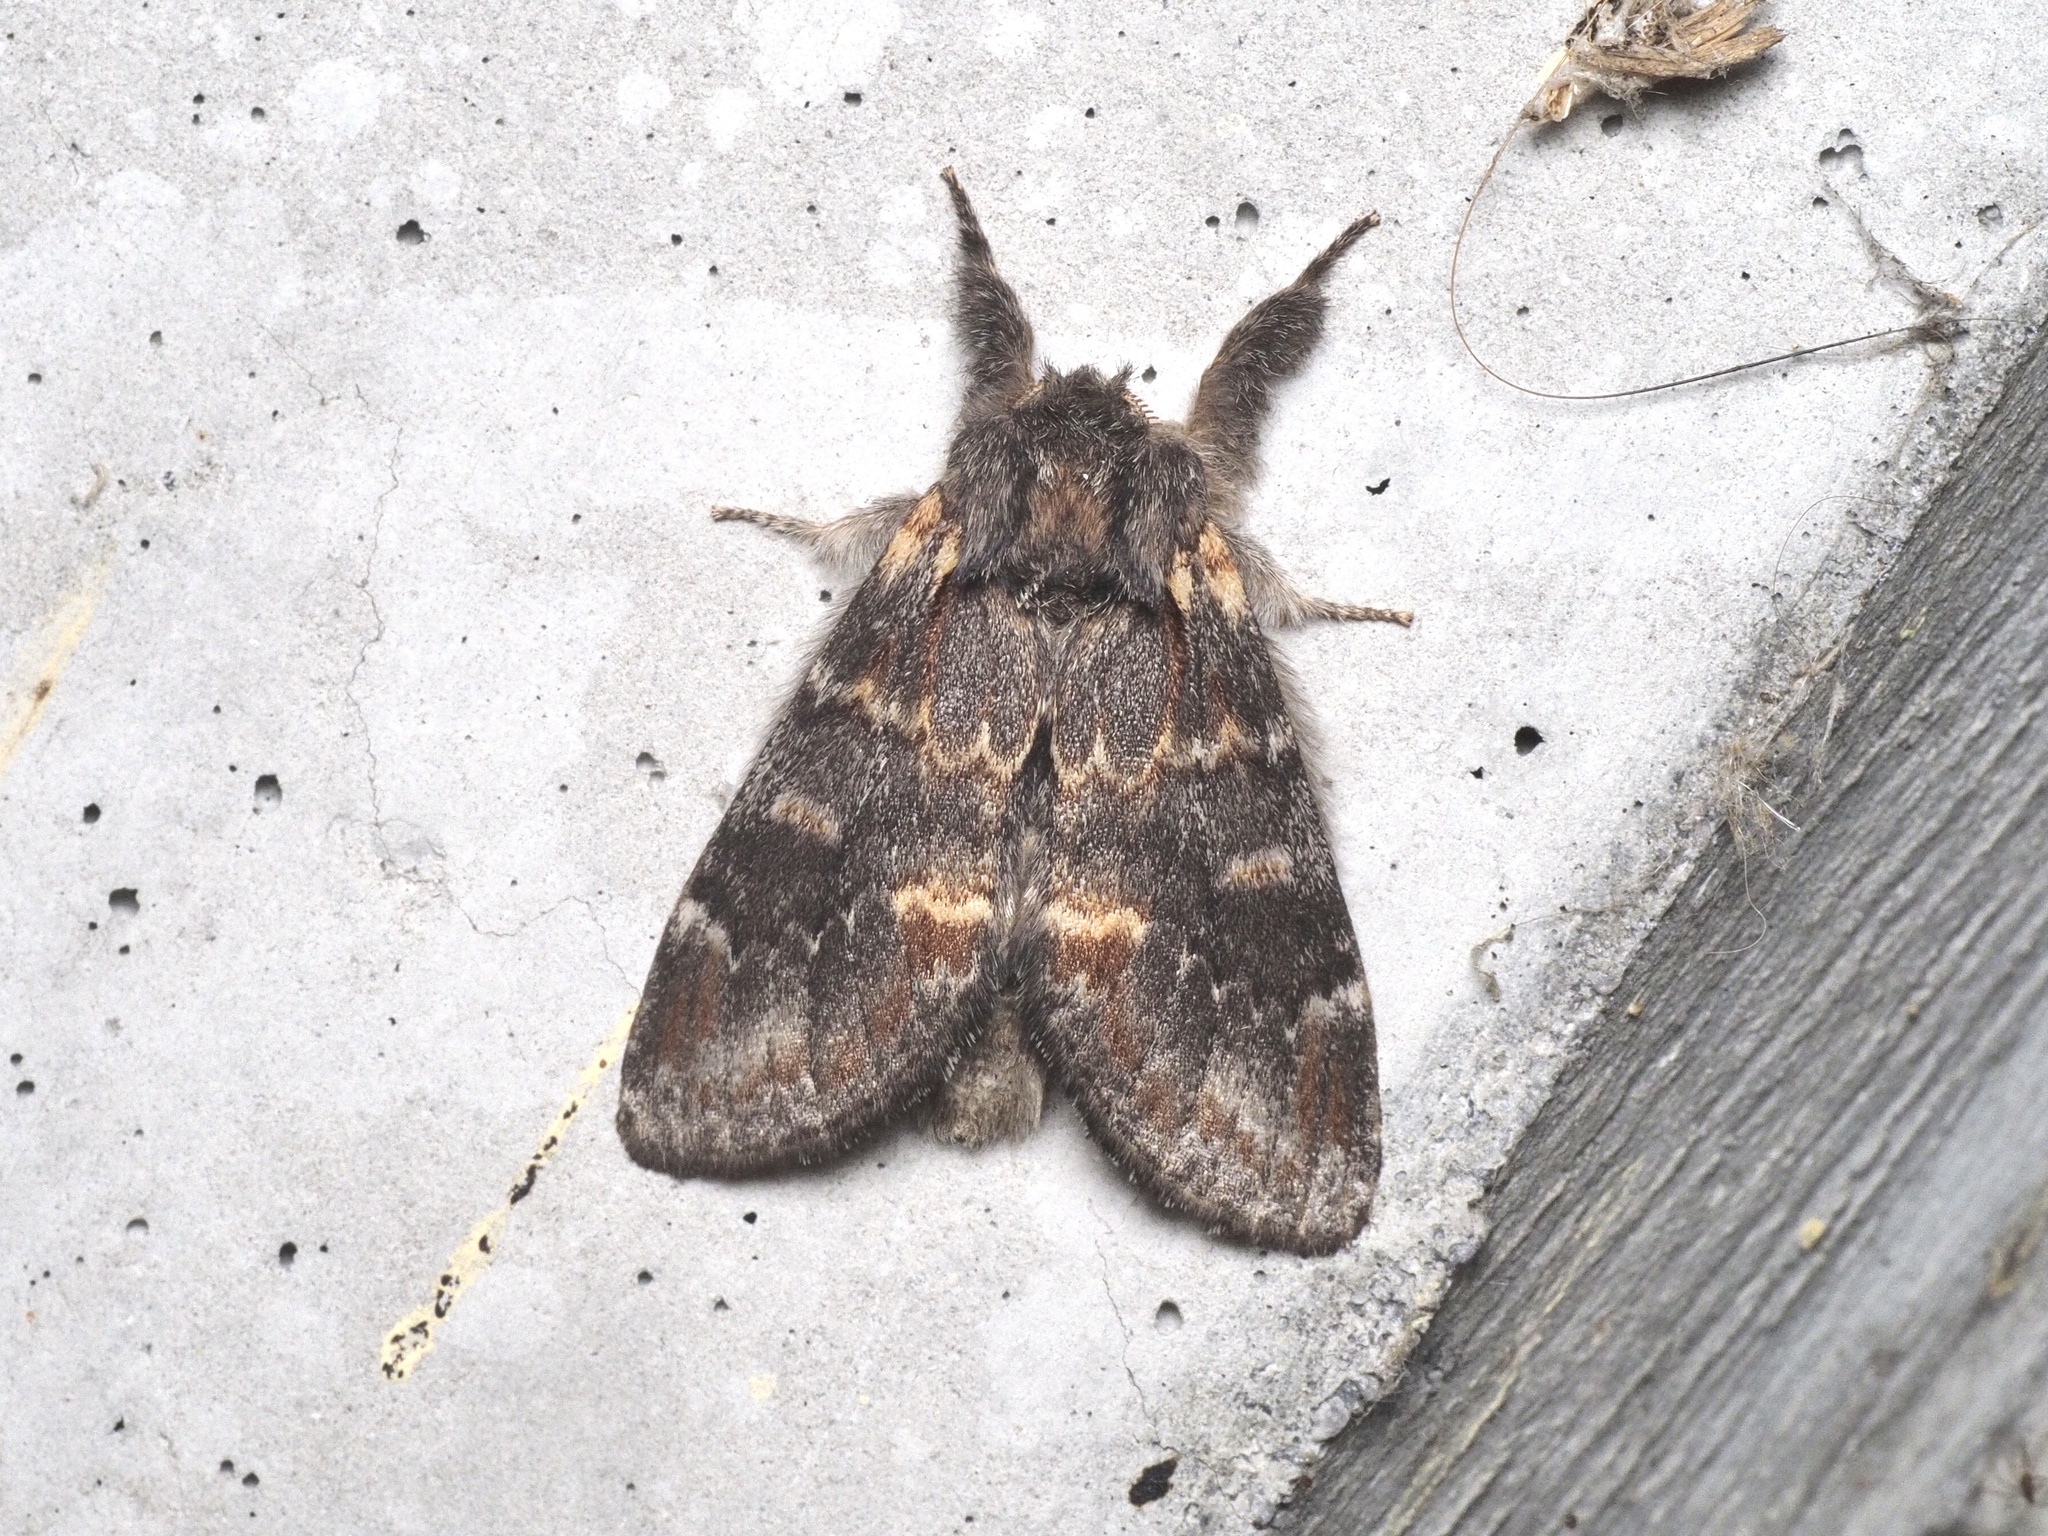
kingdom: Animalia
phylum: Arthropoda
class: Insecta
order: Lepidoptera
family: Notodontidae
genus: Notodonta
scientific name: Notodonta dromedarius
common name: Iron prominent
